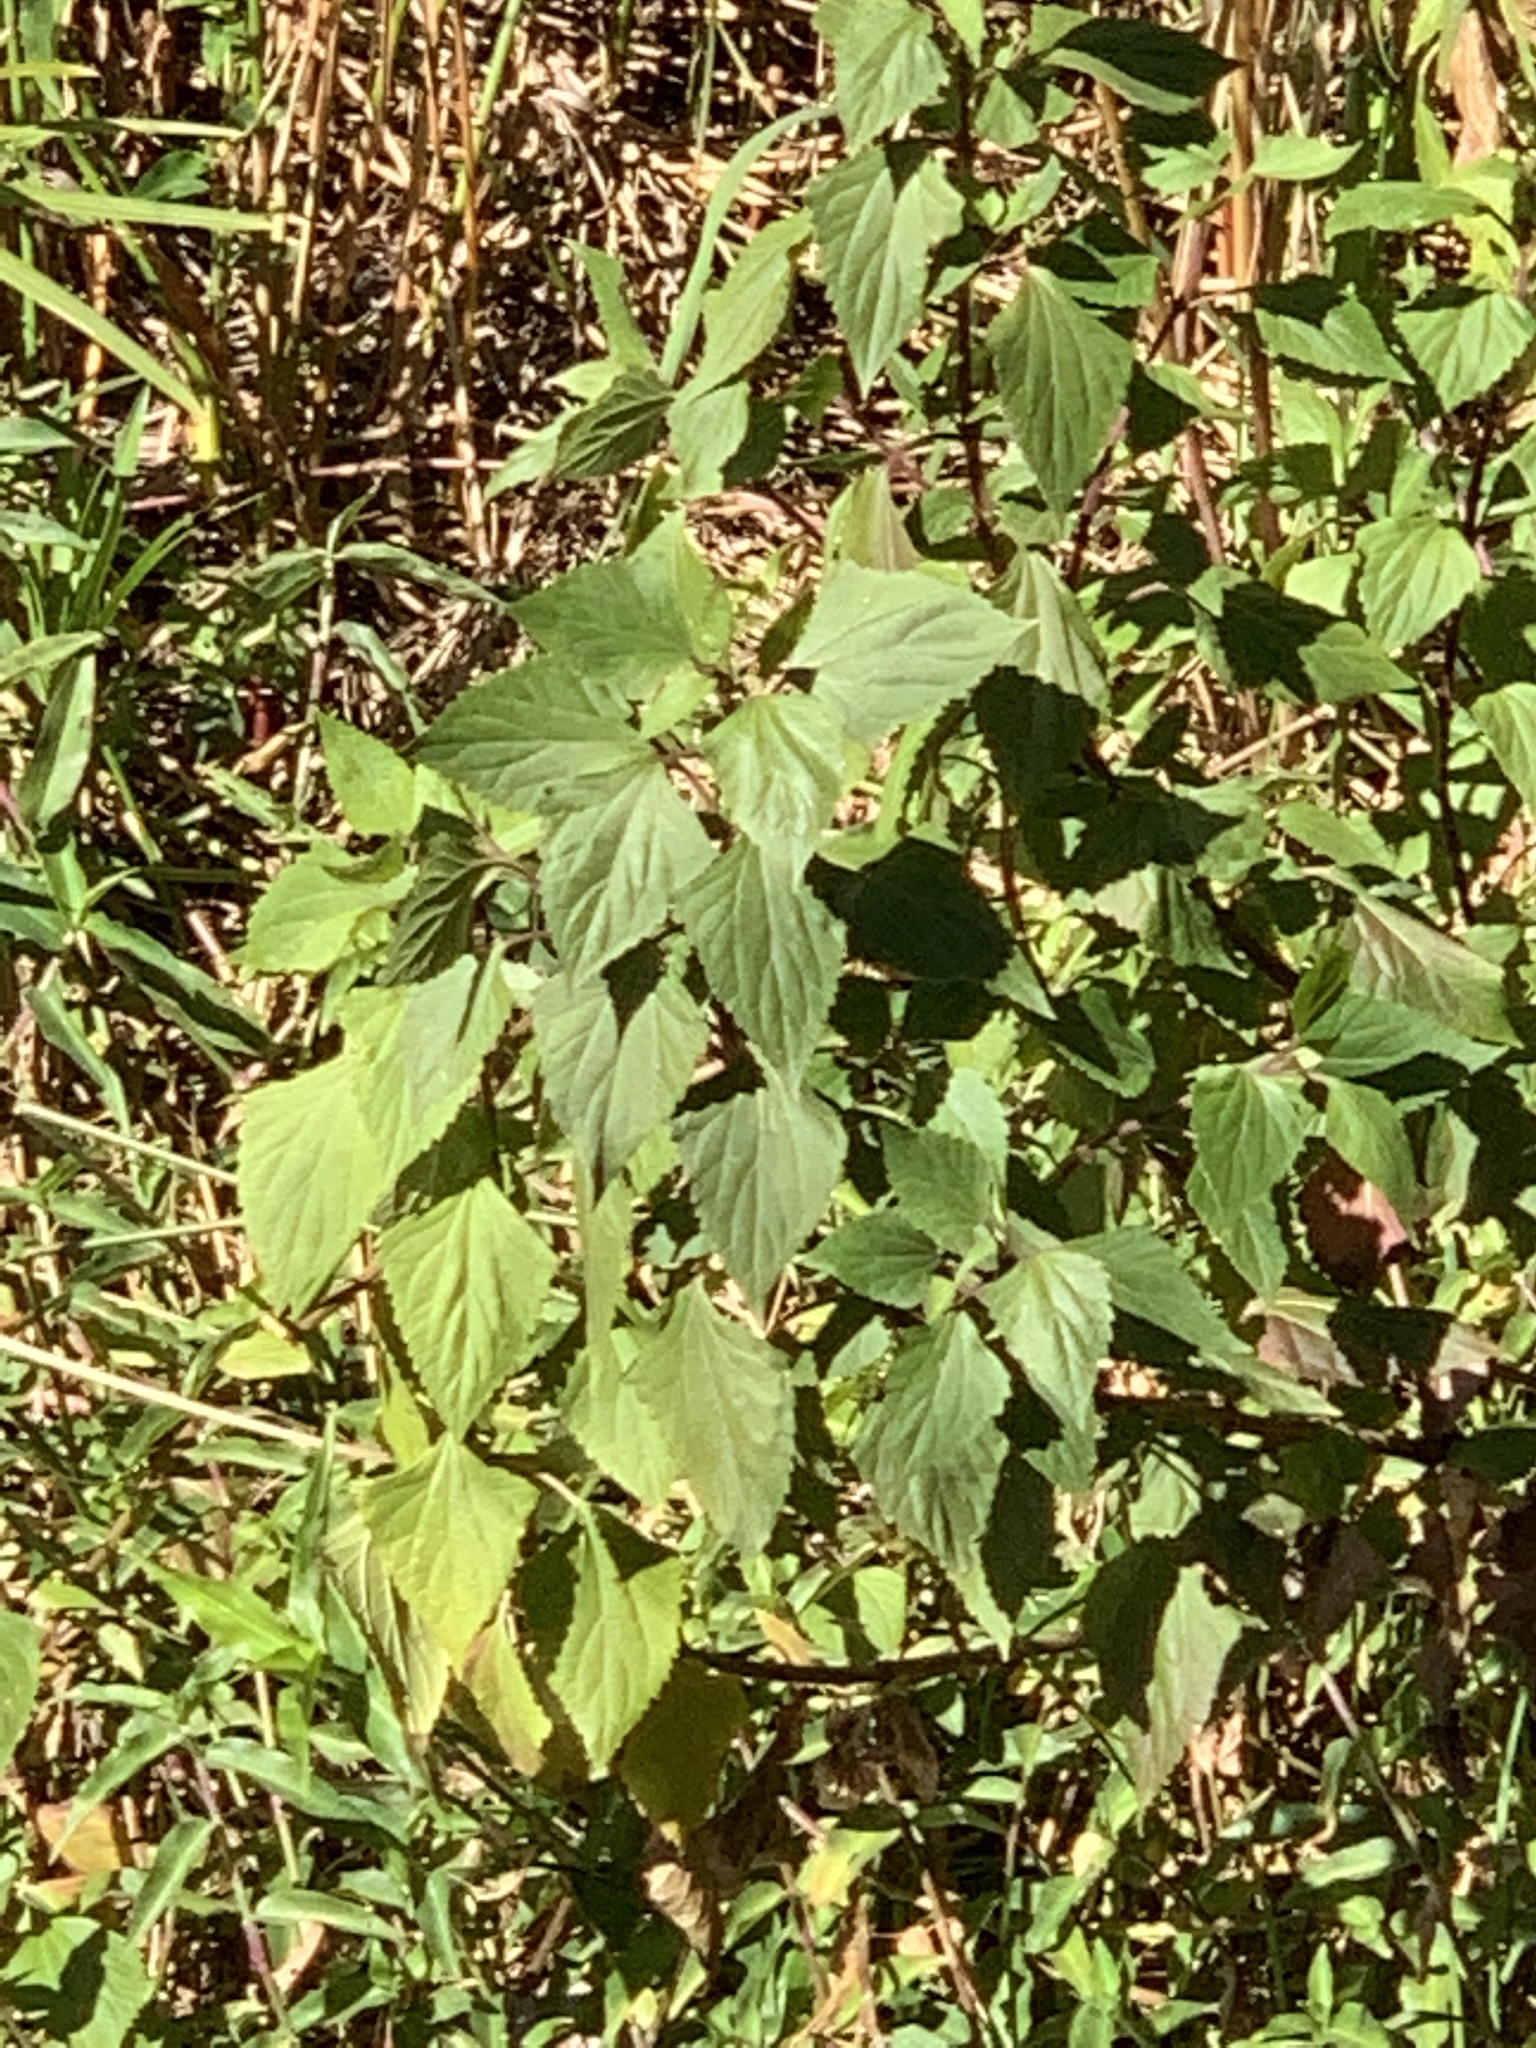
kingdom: Plantae
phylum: Tracheophyta
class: Magnoliopsida
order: Asterales
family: Asteraceae
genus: Ageratina
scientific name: Ageratina adenophora
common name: Sticky snakeroot
